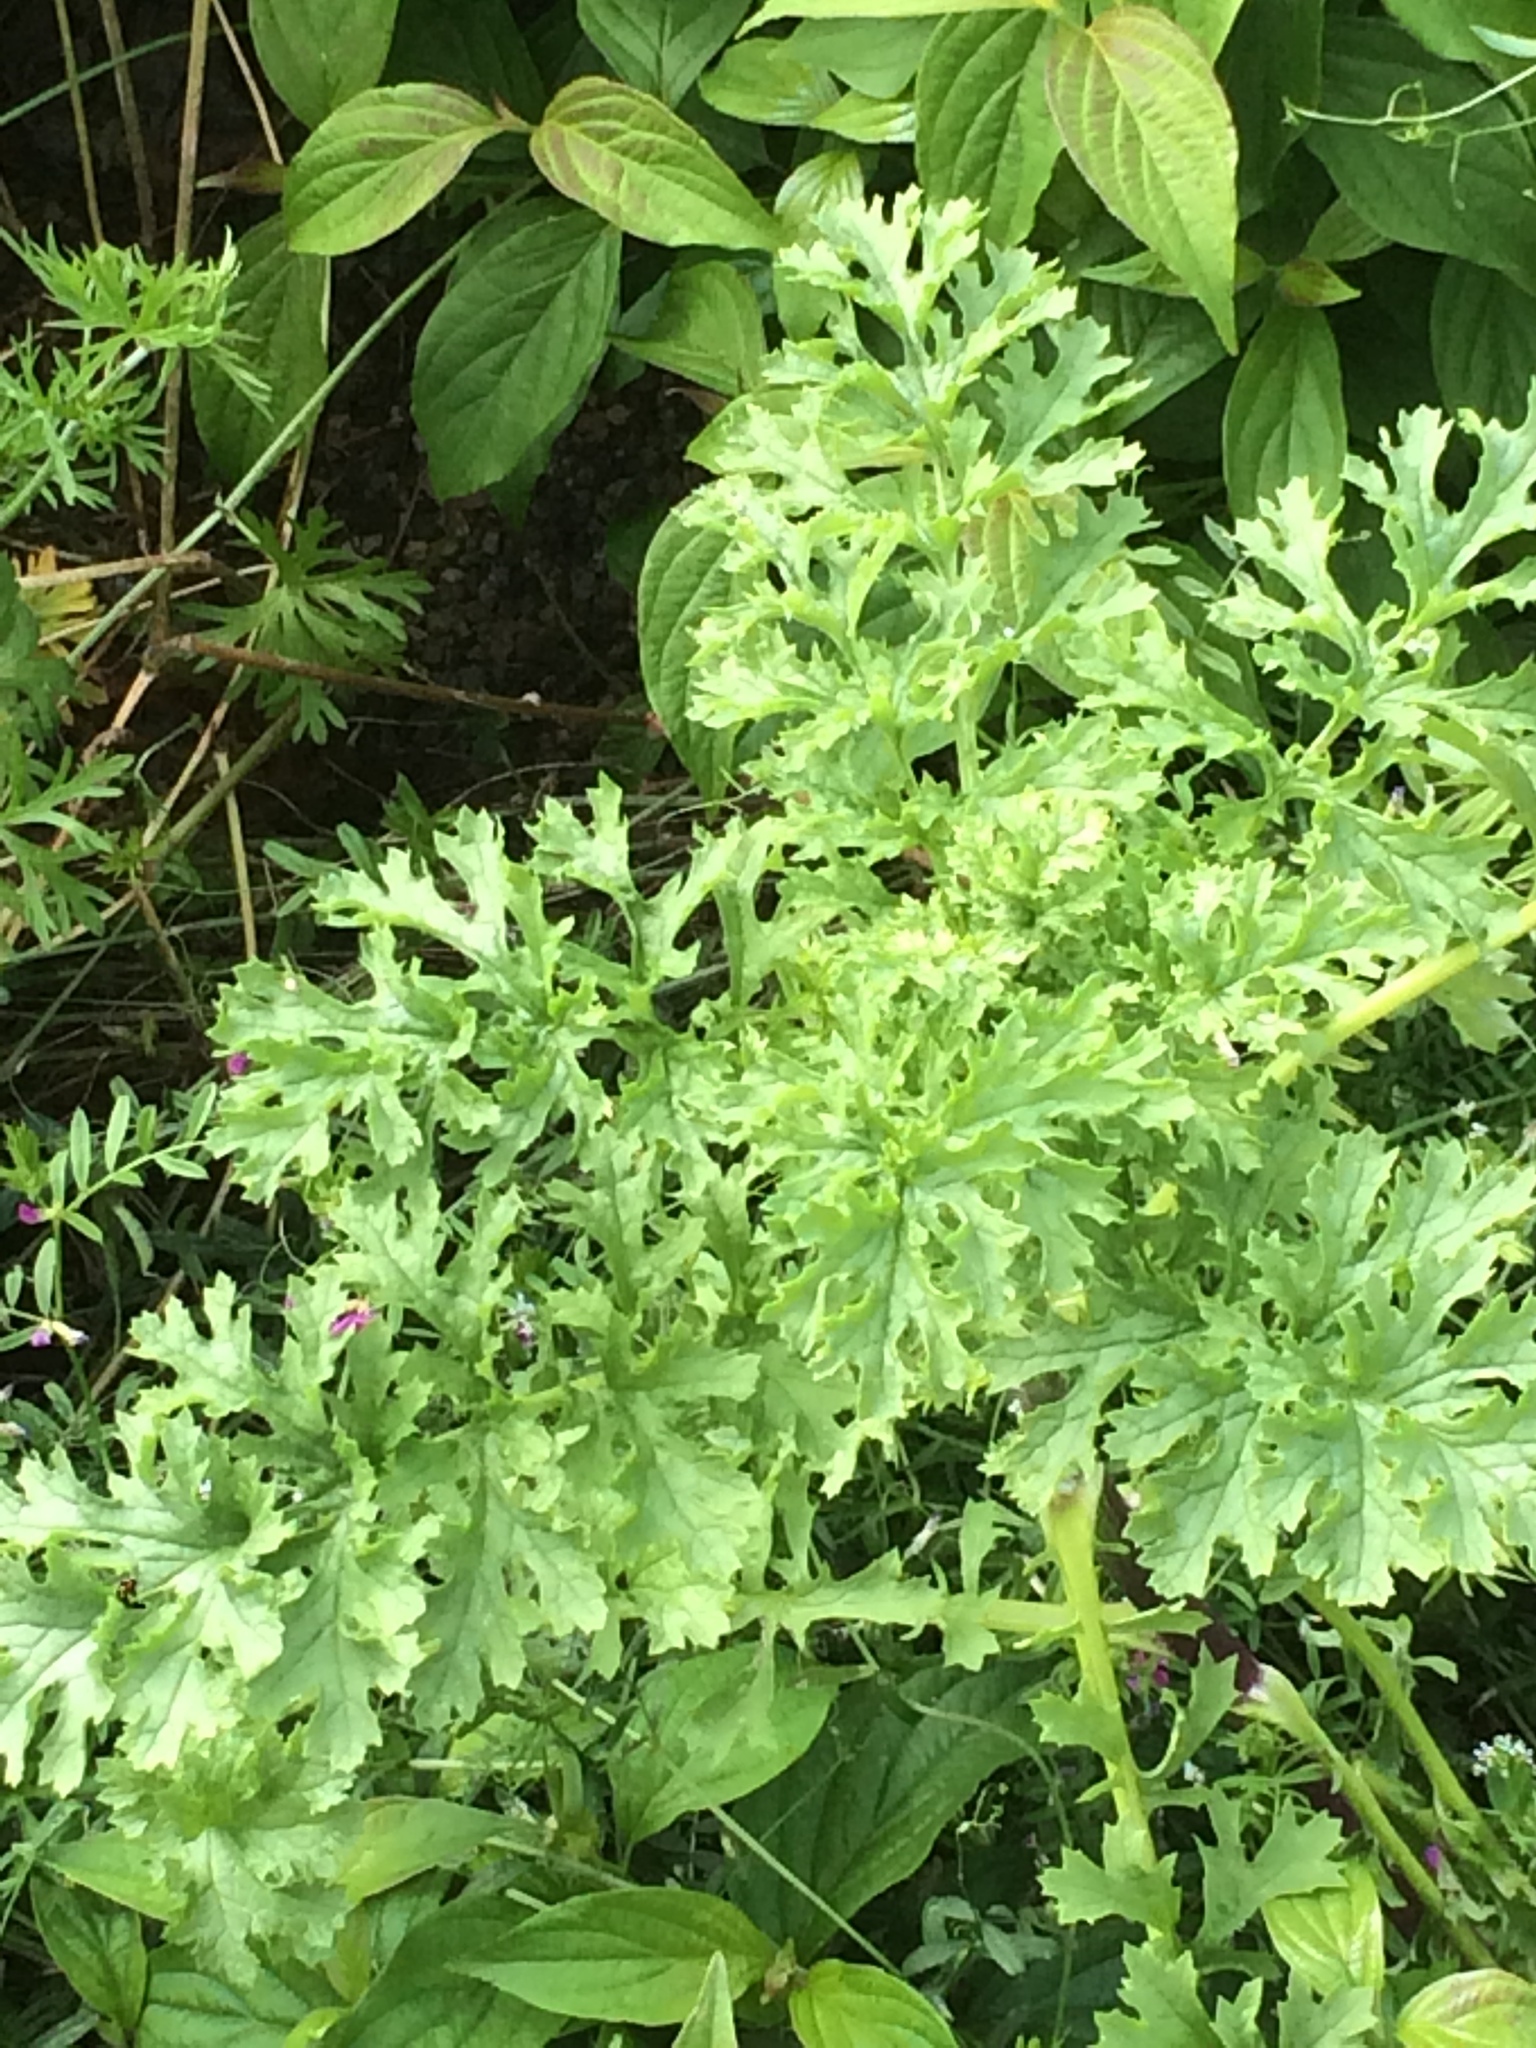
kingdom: Plantae
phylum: Tracheophyta
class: Magnoliopsida
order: Asterales
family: Asteraceae
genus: Jacobaea
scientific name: Jacobaea vulgaris
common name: Stinking willie
